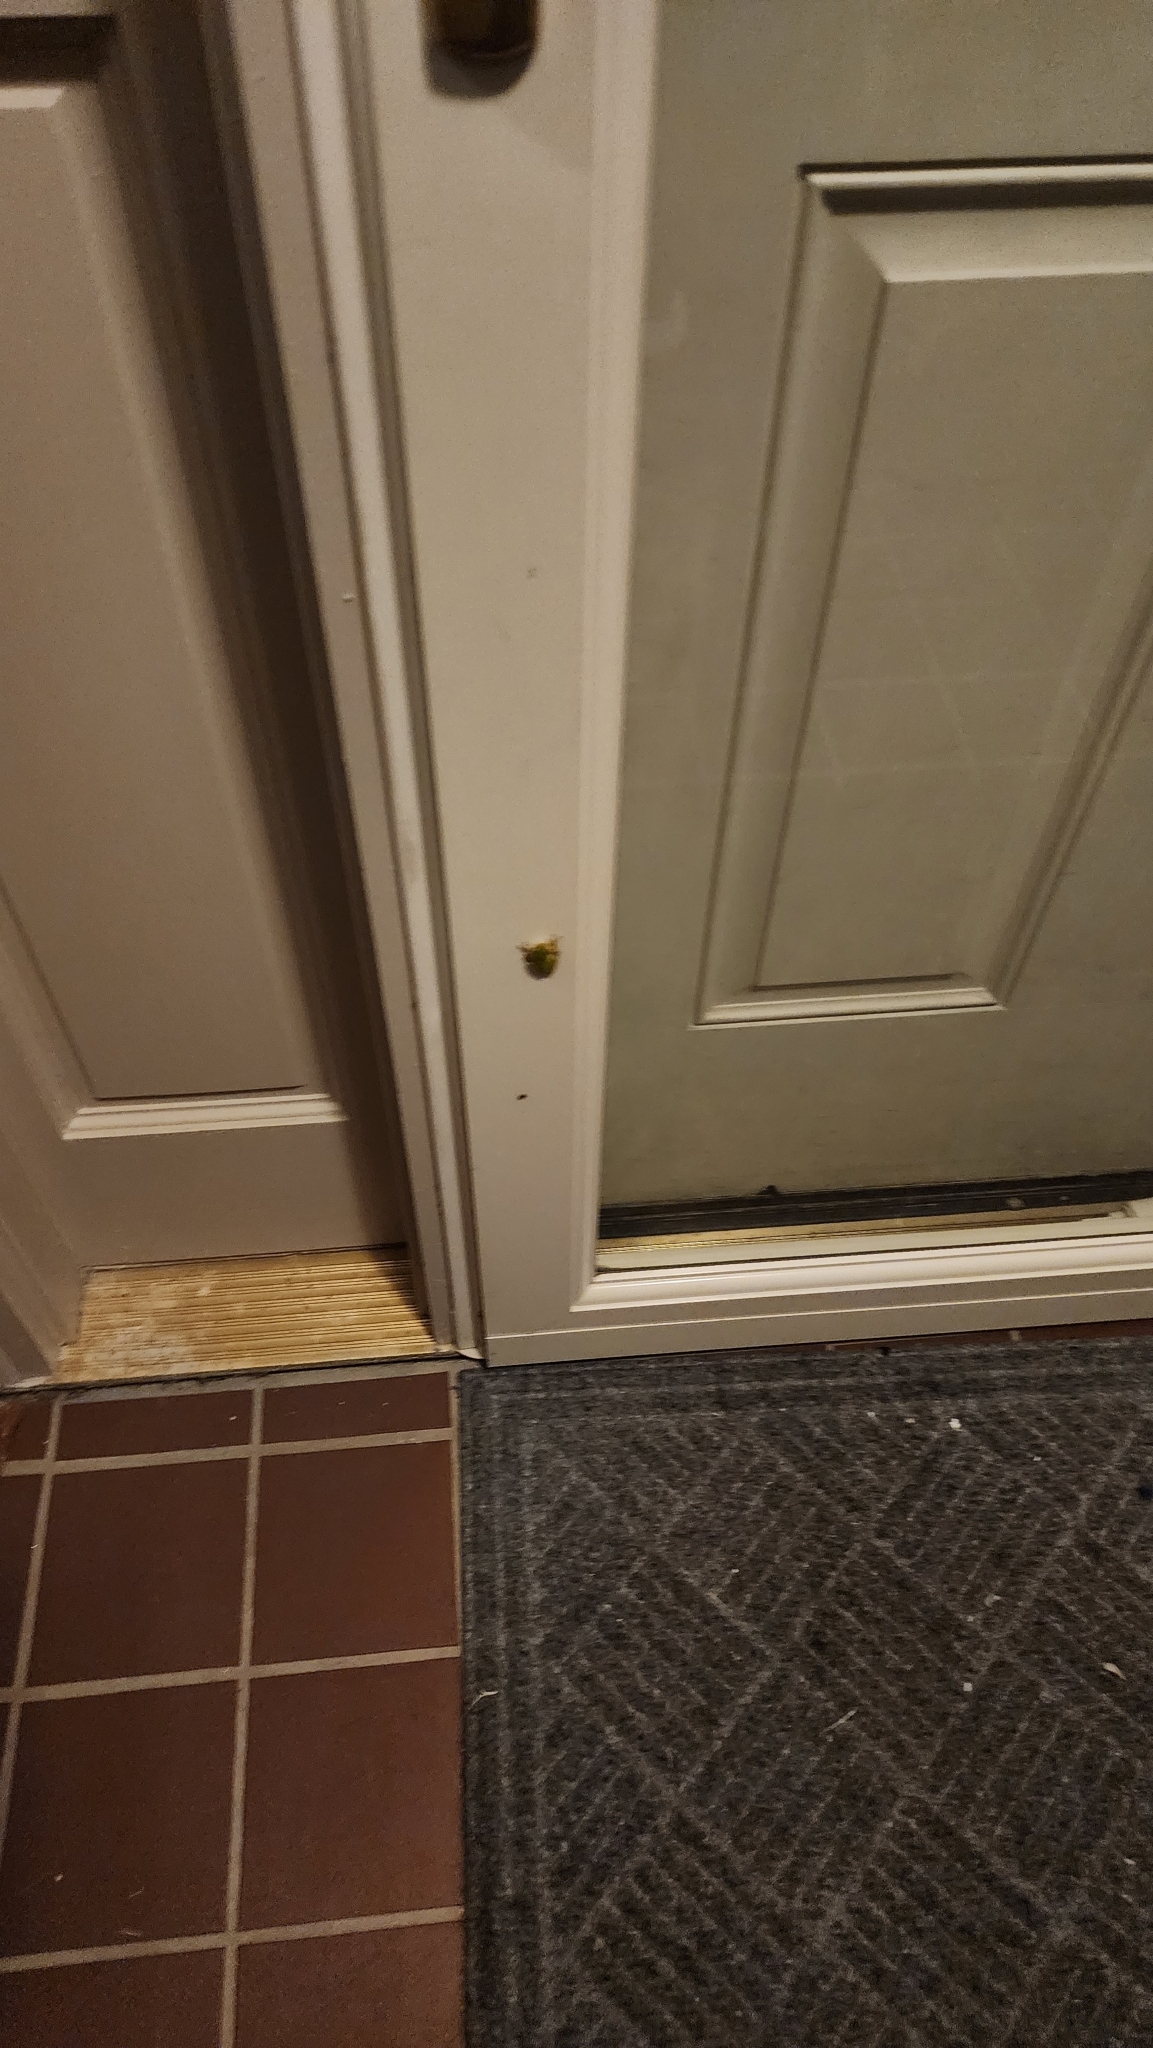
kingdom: Animalia
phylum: Chordata
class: Amphibia
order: Anura
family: Hylidae
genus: Dryophytes
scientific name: Dryophytes cinereus
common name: Green treefrog
